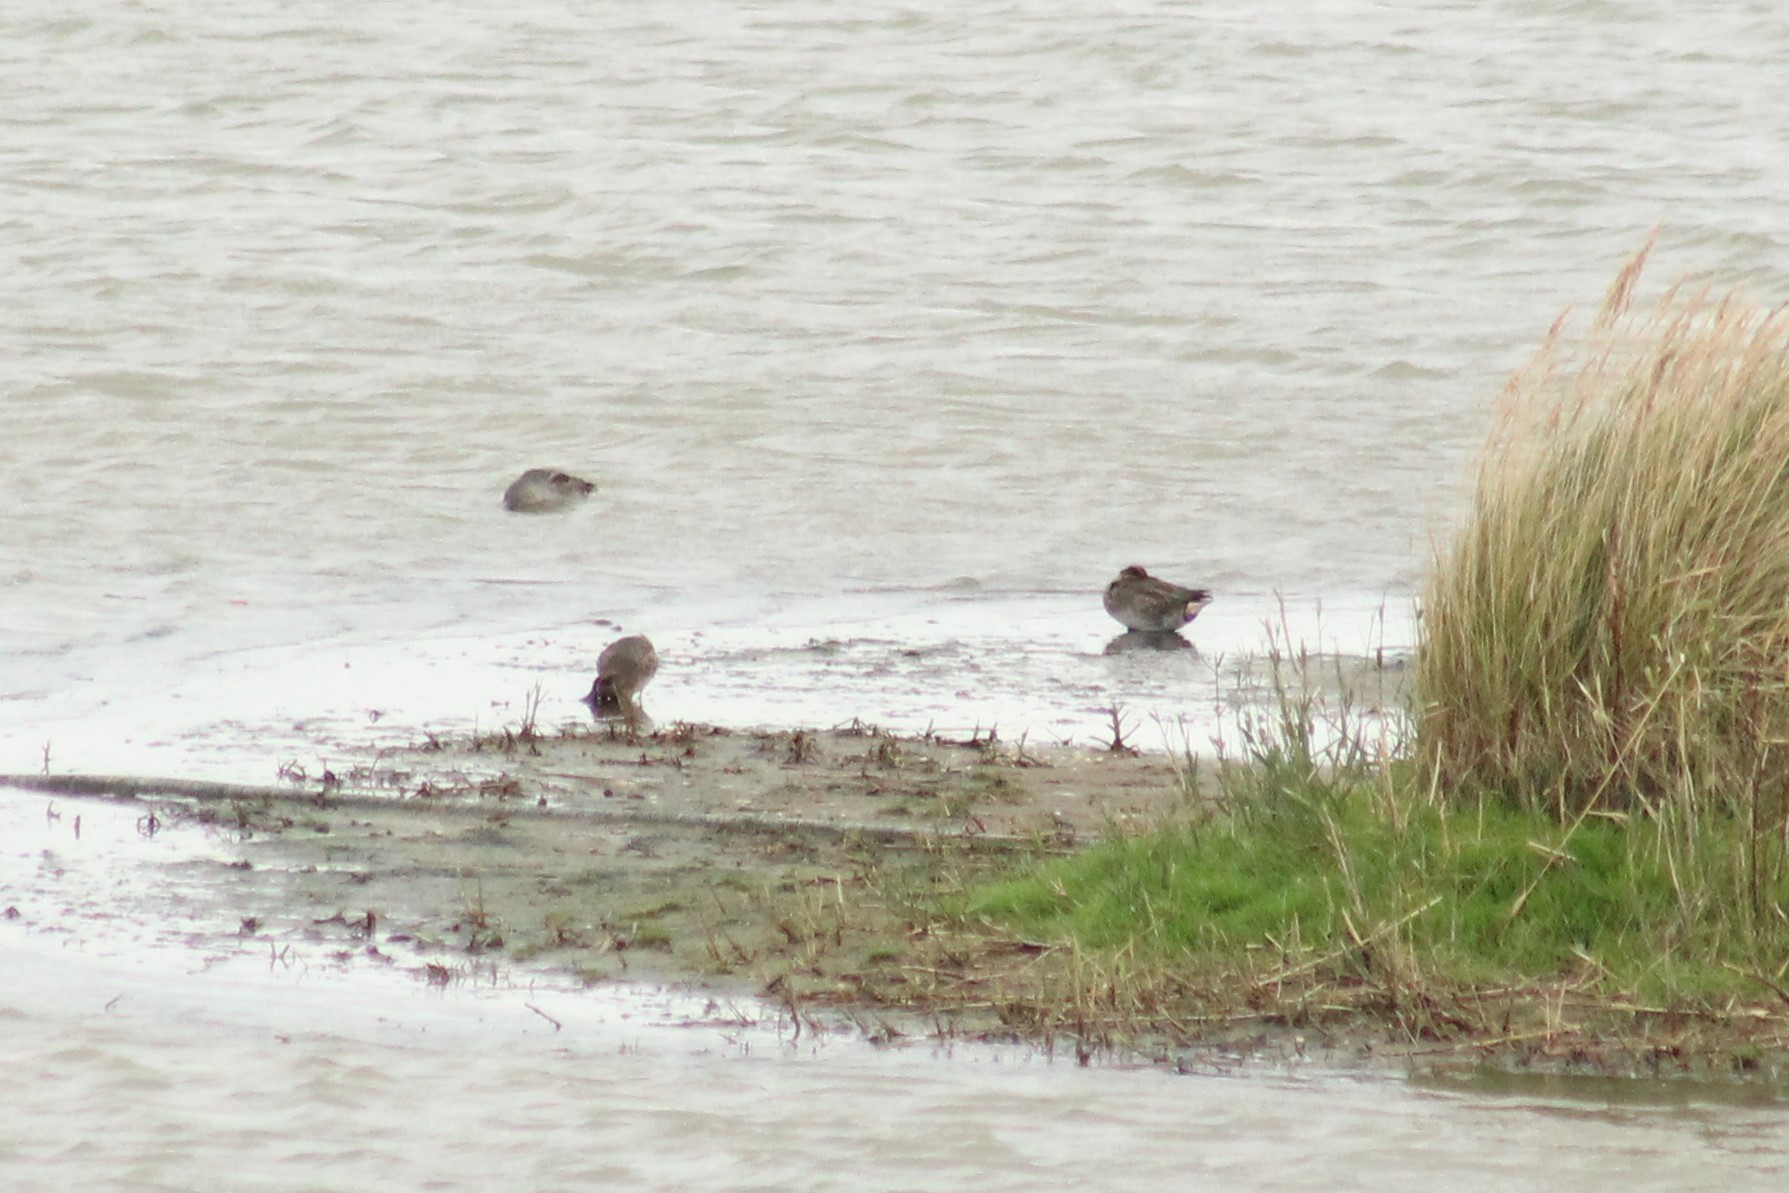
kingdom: Animalia
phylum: Chordata
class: Aves
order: Anseriformes
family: Anatidae
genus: Anas
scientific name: Anas crecca
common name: Eurasian teal
